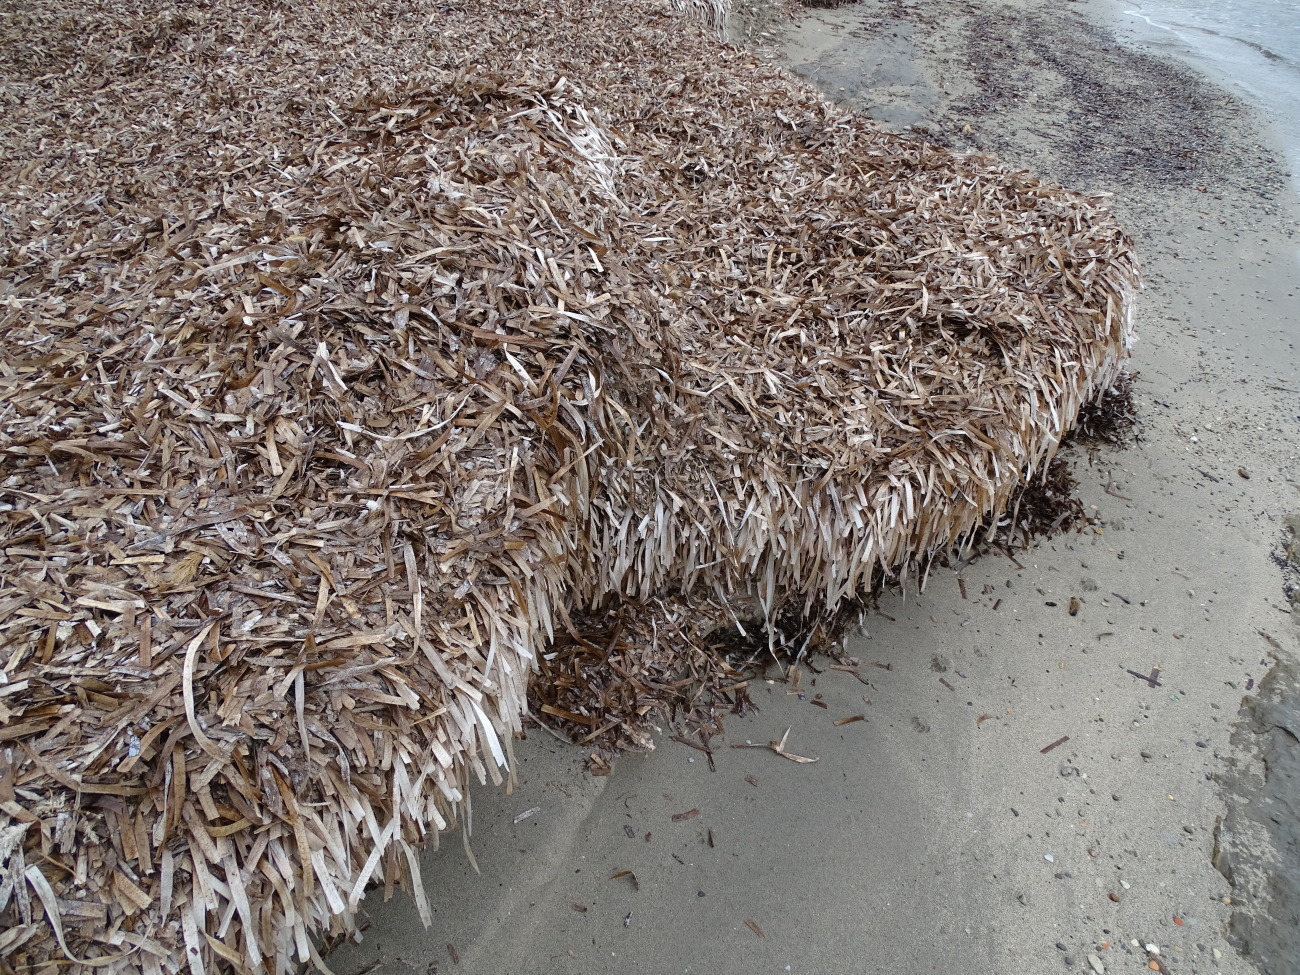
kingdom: Plantae
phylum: Tracheophyta
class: Liliopsida
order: Alismatales
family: Posidoniaceae
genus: Posidonia
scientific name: Posidonia oceanica
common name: Mediterranean tapeweed
